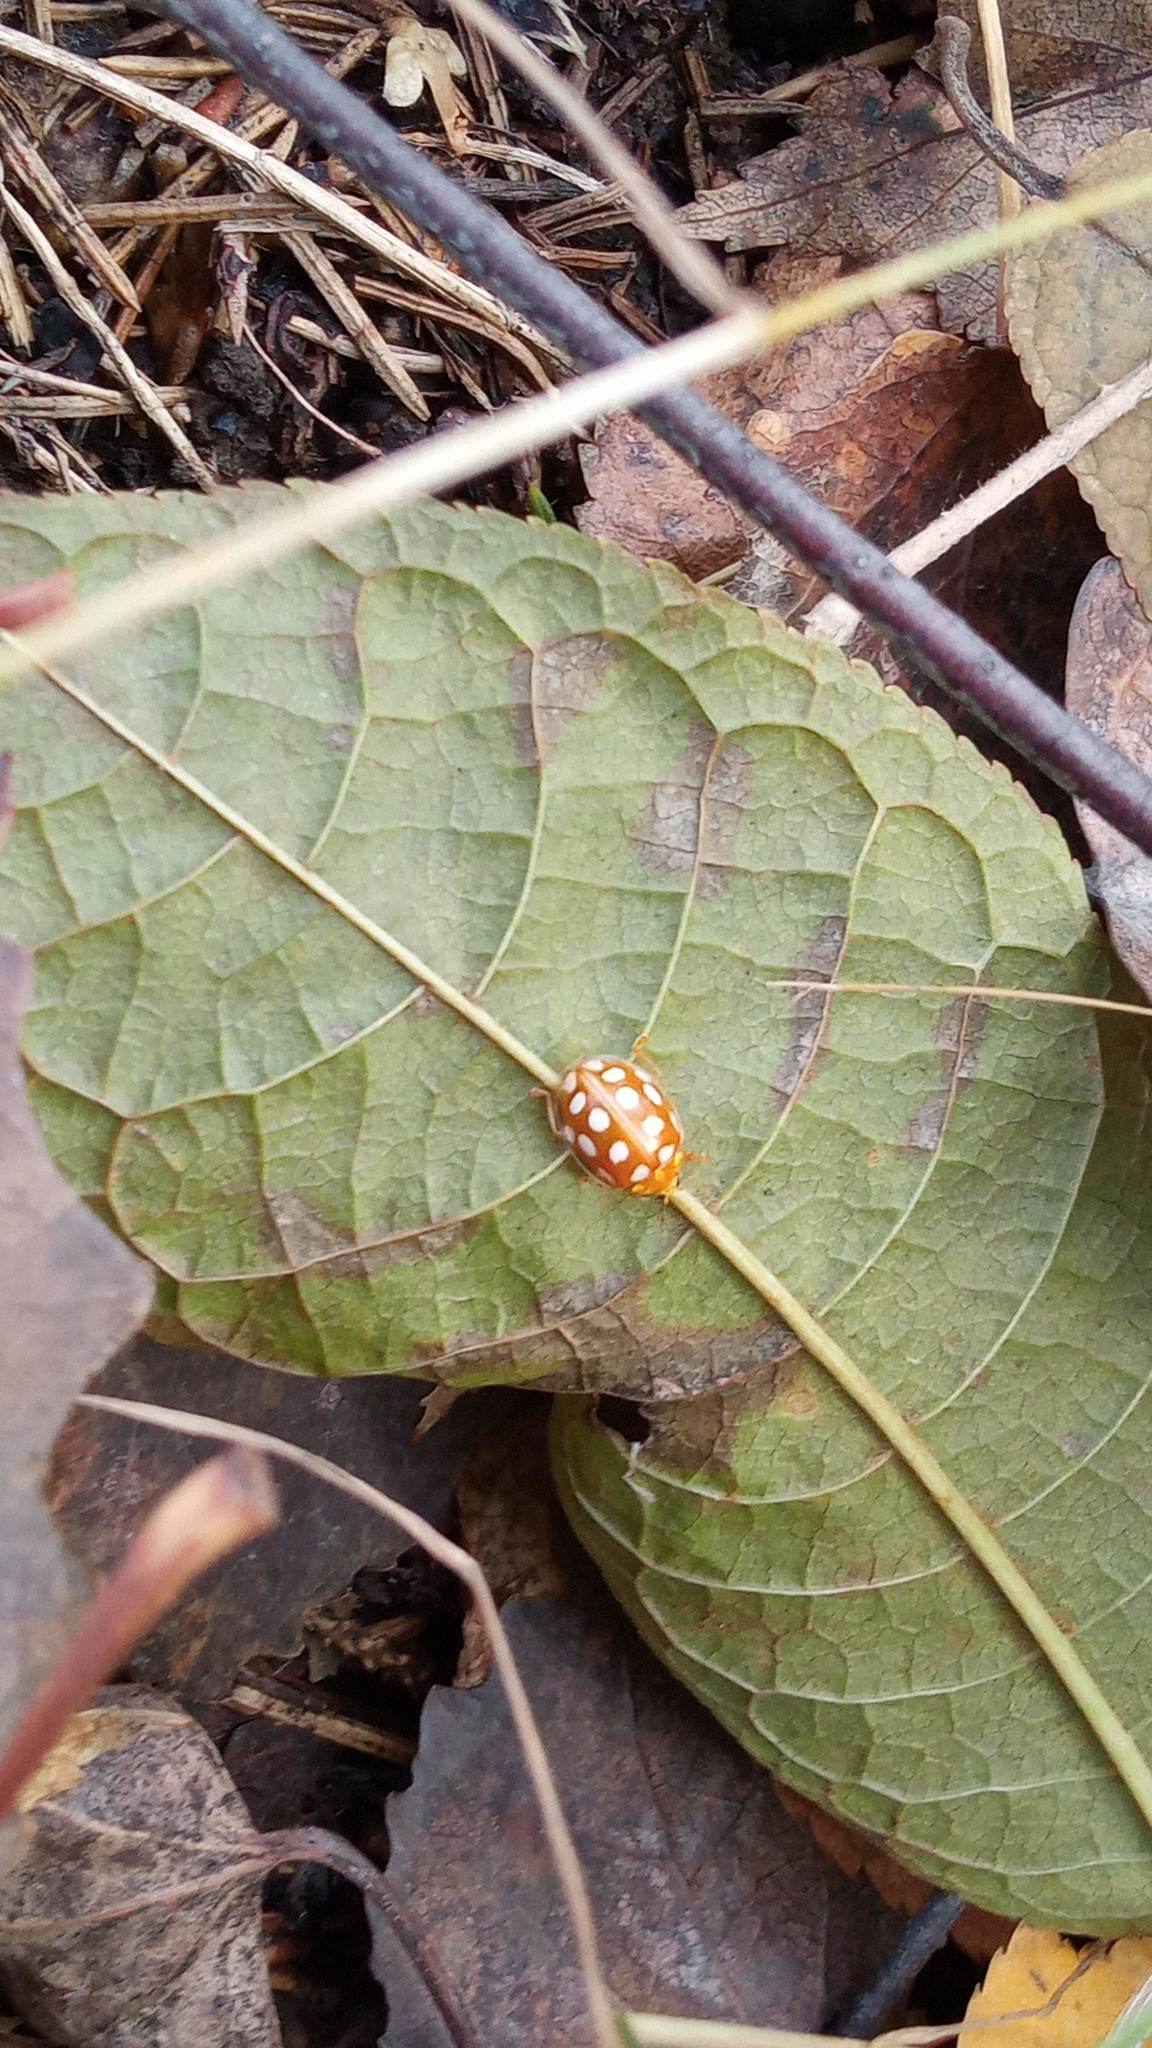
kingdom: Animalia
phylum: Arthropoda
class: Insecta
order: Coleoptera
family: Coccinellidae
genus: Halyzia
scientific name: Halyzia sedecimguttata
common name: Orange ladybird
